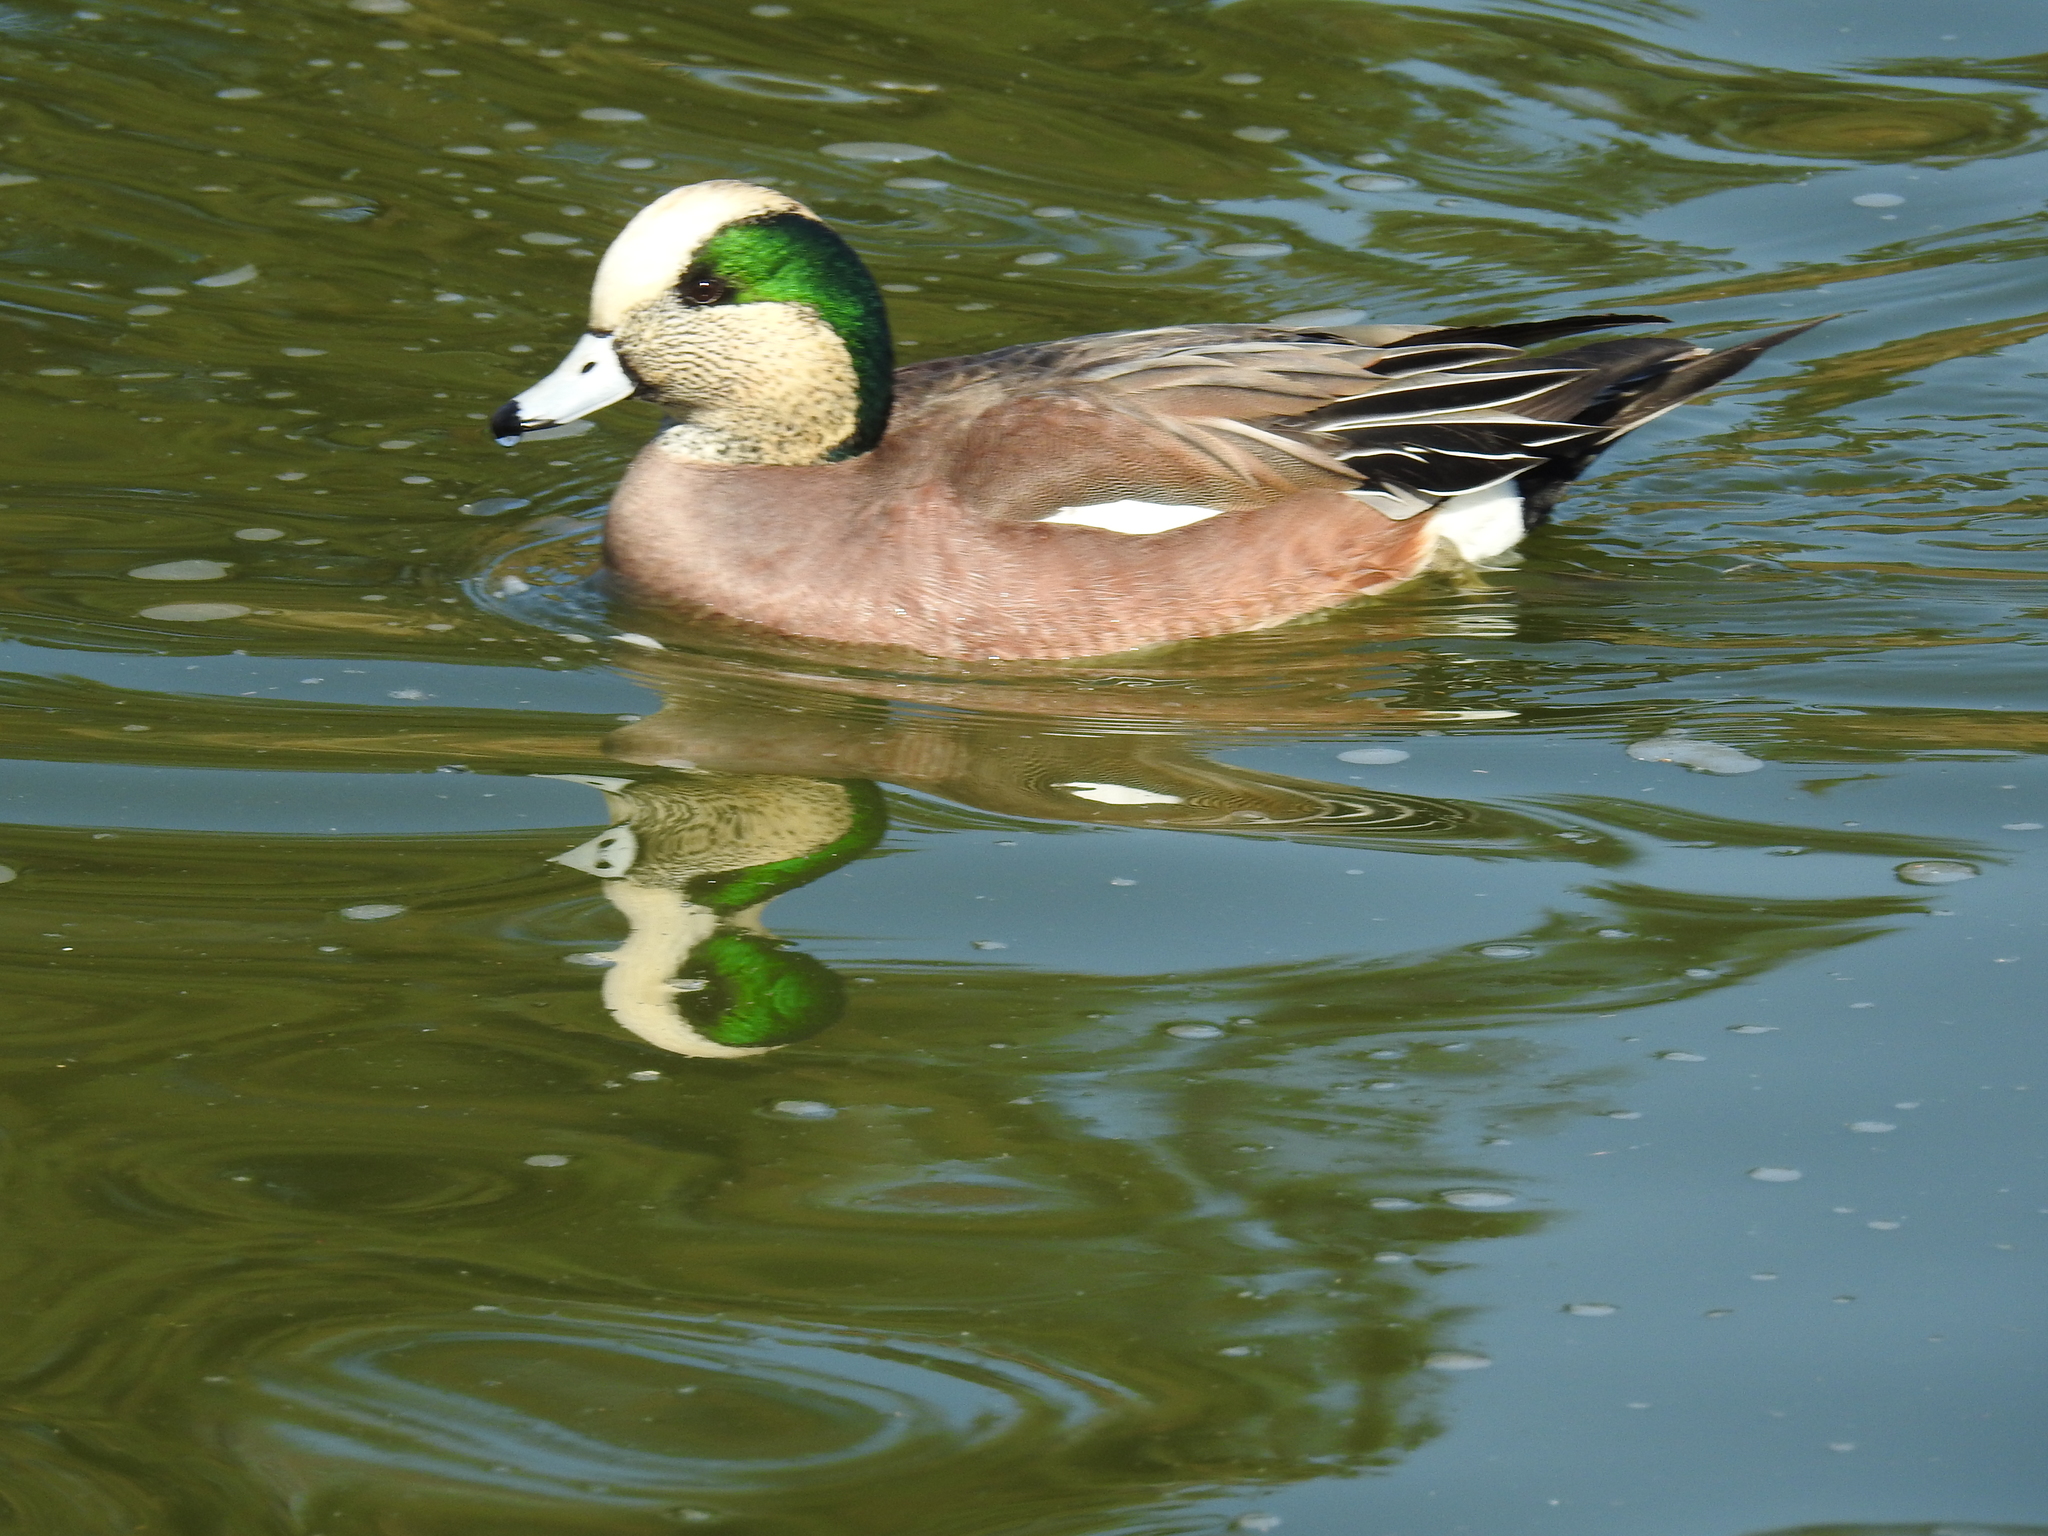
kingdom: Animalia
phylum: Chordata
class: Aves
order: Anseriformes
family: Anatidae
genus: Mareca
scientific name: Mareca americana
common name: American wigeon
